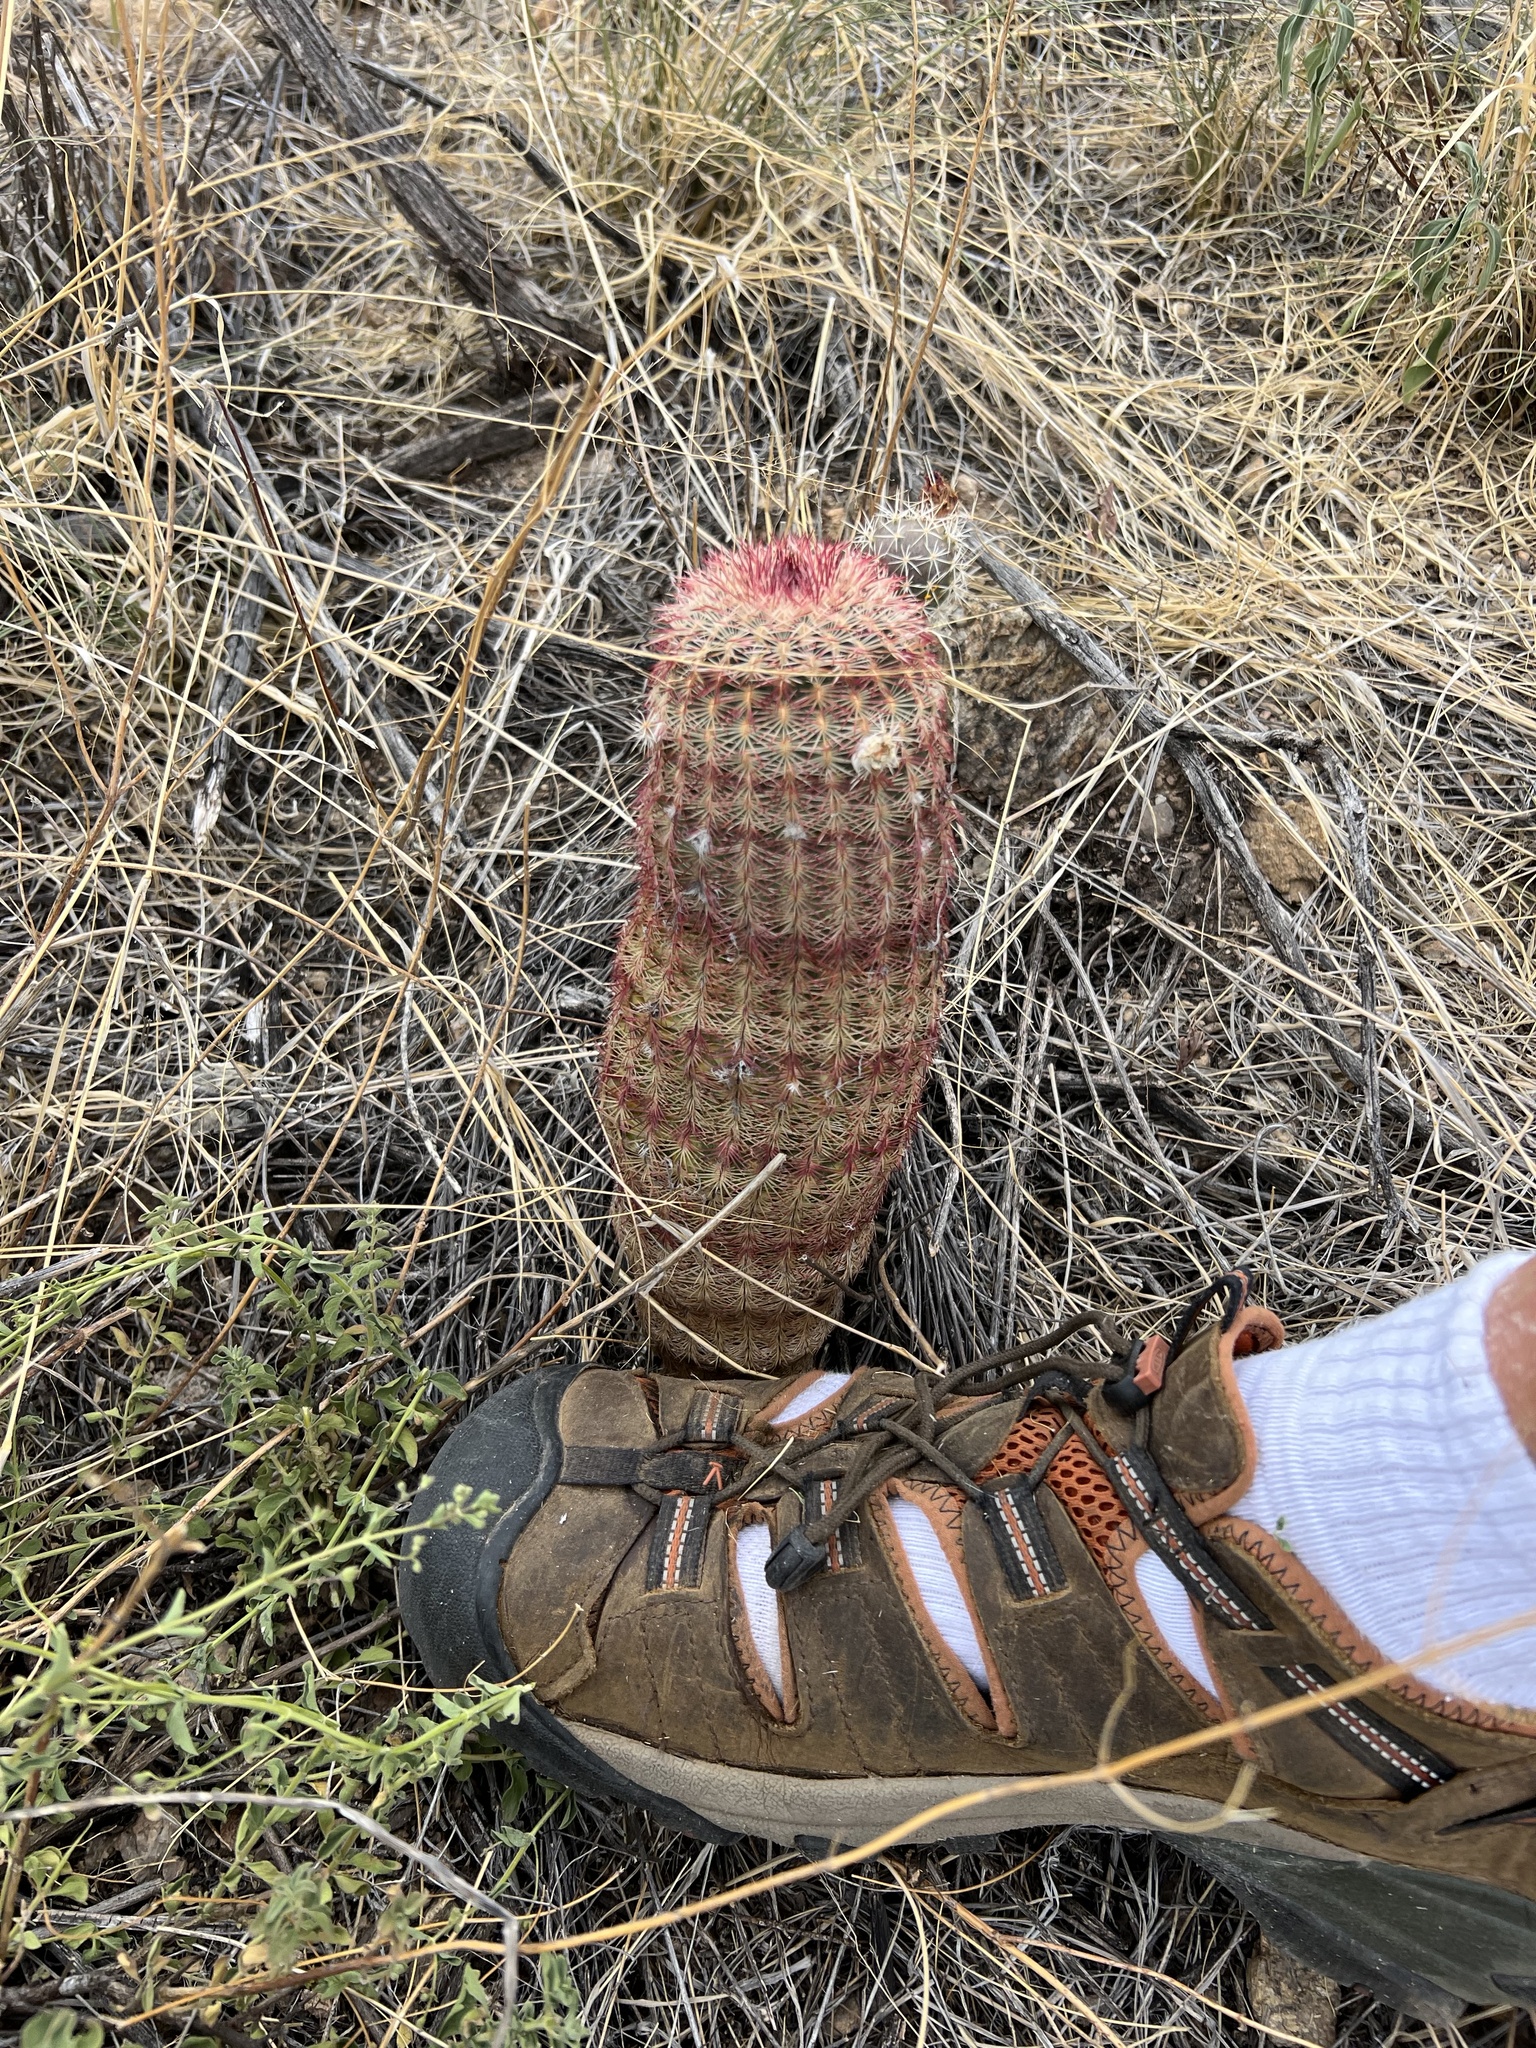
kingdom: Plantae
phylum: Tracheophyta
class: Magnoliopsida
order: Caryophyllales
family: Cactaceae
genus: Echinocereus
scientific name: Echinocereus rigidissimus
